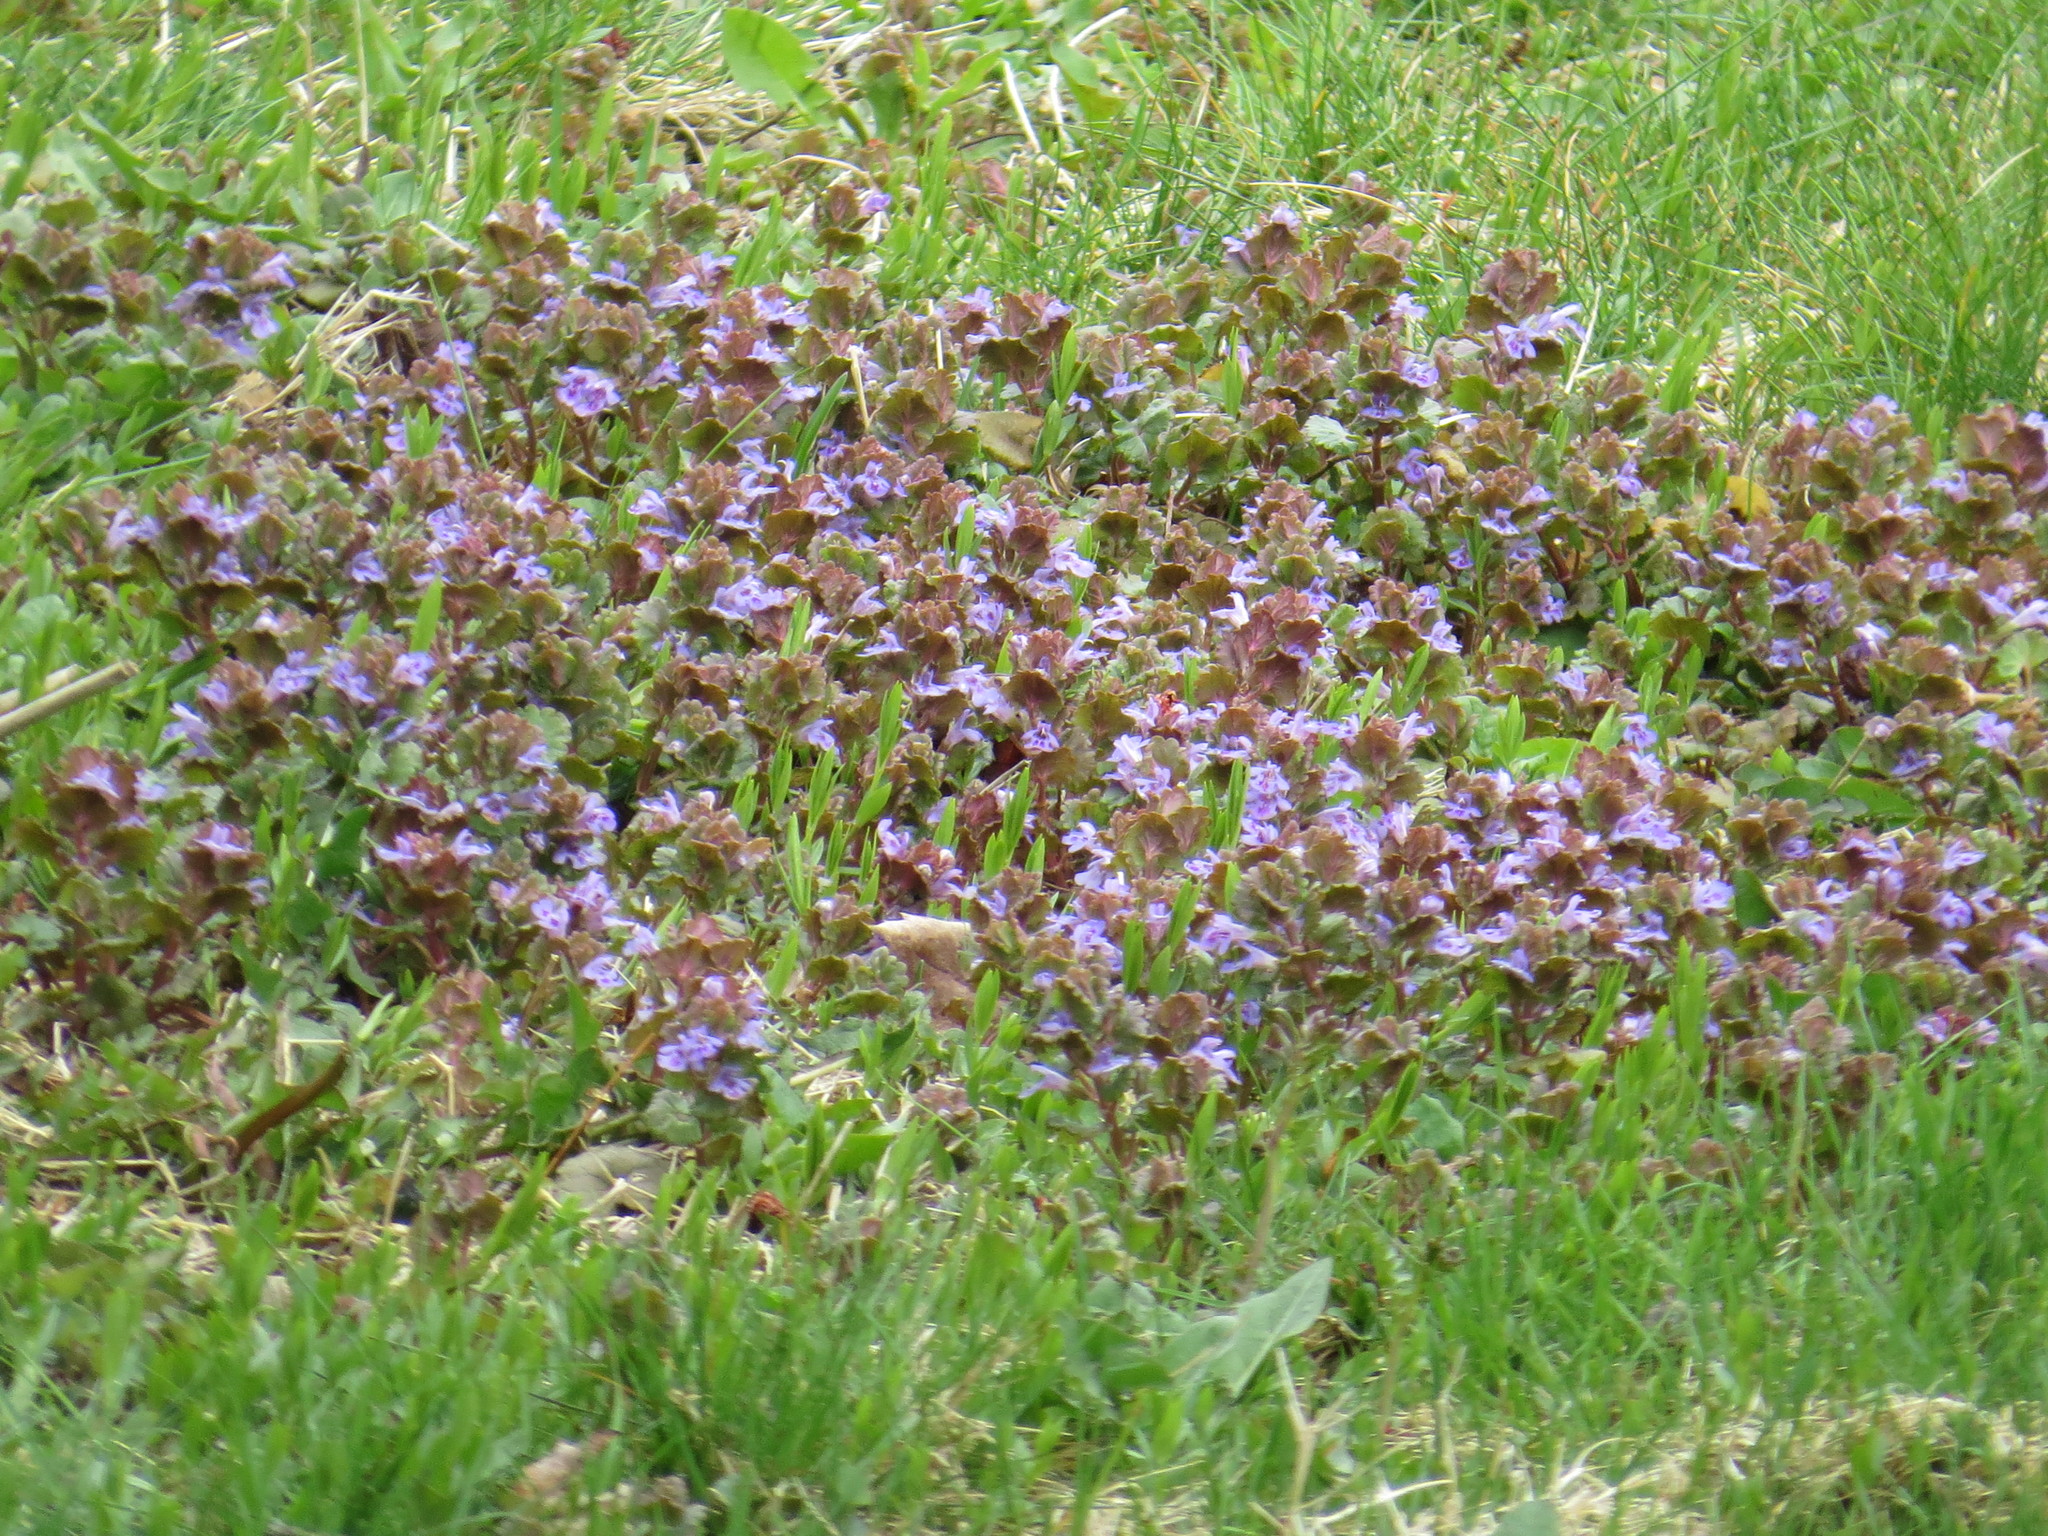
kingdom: Plantae
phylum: Tracheophyta
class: Magnoliopsida
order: Lamiales
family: Lamiaceae
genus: Glechoma
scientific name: Glechoma hederacea
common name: Ground ivy
